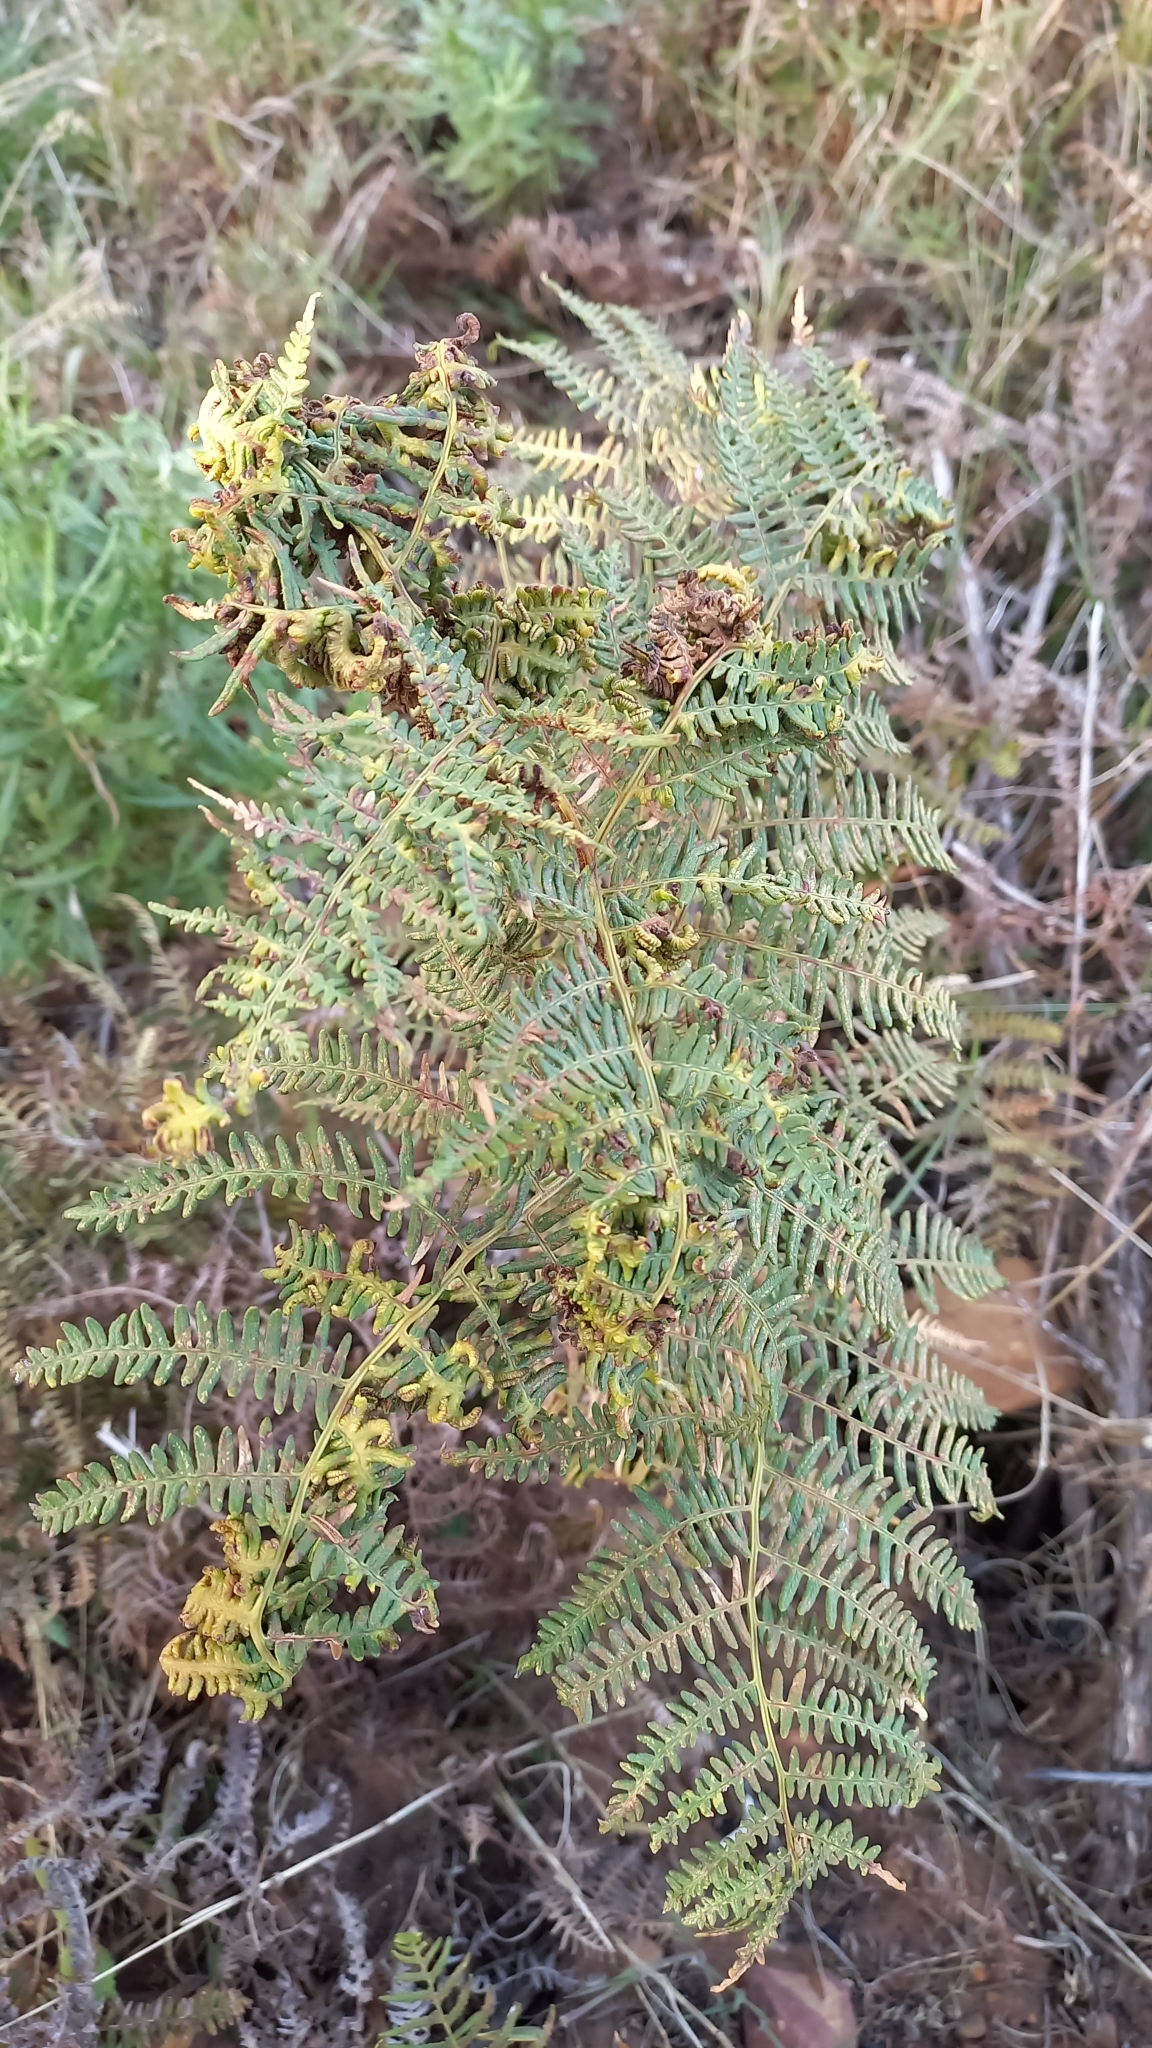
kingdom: Plantae
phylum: Tracheophyta
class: Polypodiopsida
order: Polypodiales
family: Dennstaedtiaceae
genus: Pteridium
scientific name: Pteridium aquilinum
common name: Bracken
